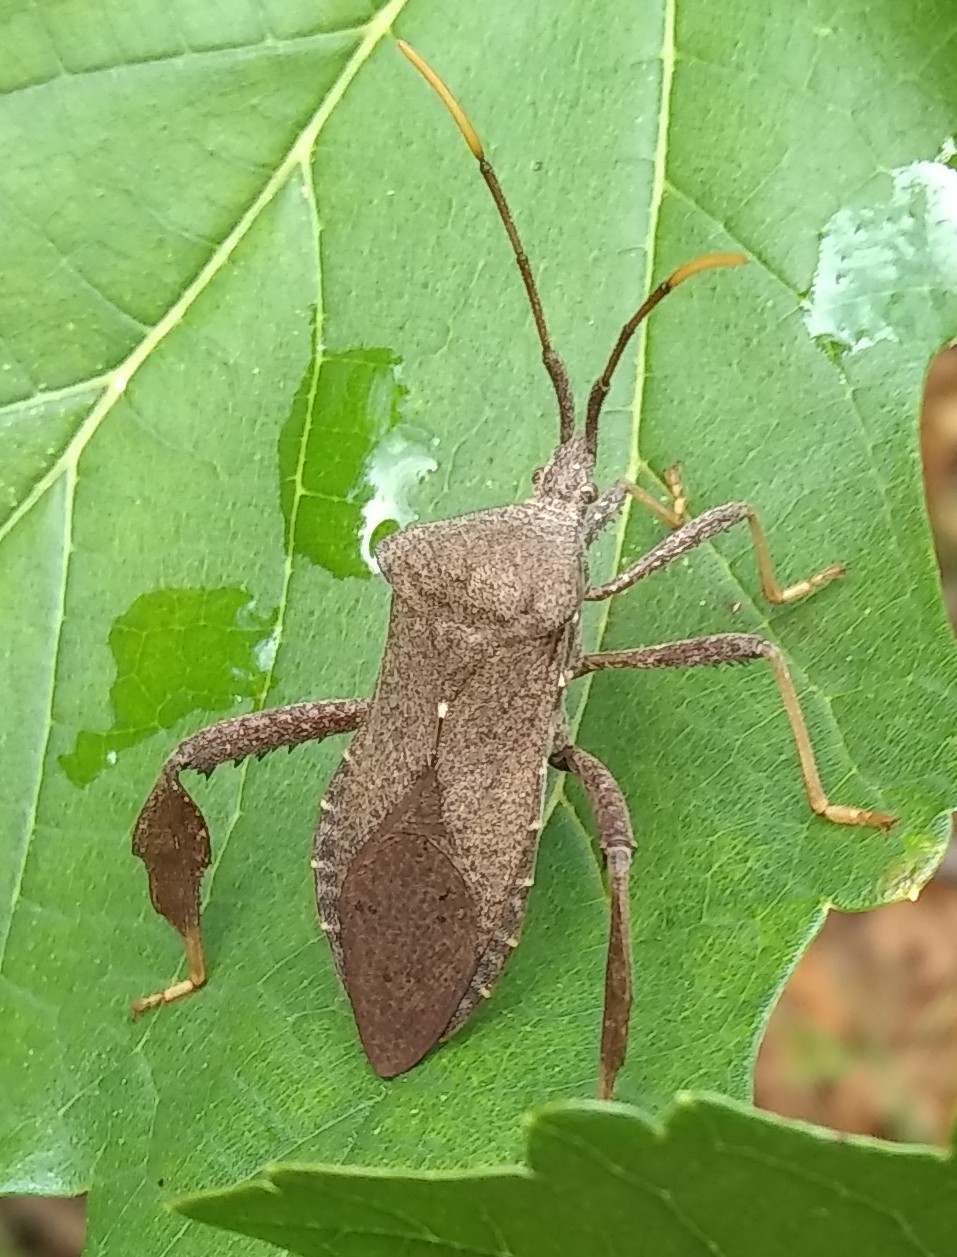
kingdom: Animalia
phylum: Arthropoda
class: Insecta
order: Hemiptera
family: Coreidae
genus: Acanthocephala
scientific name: Acanthocephala terminalis
